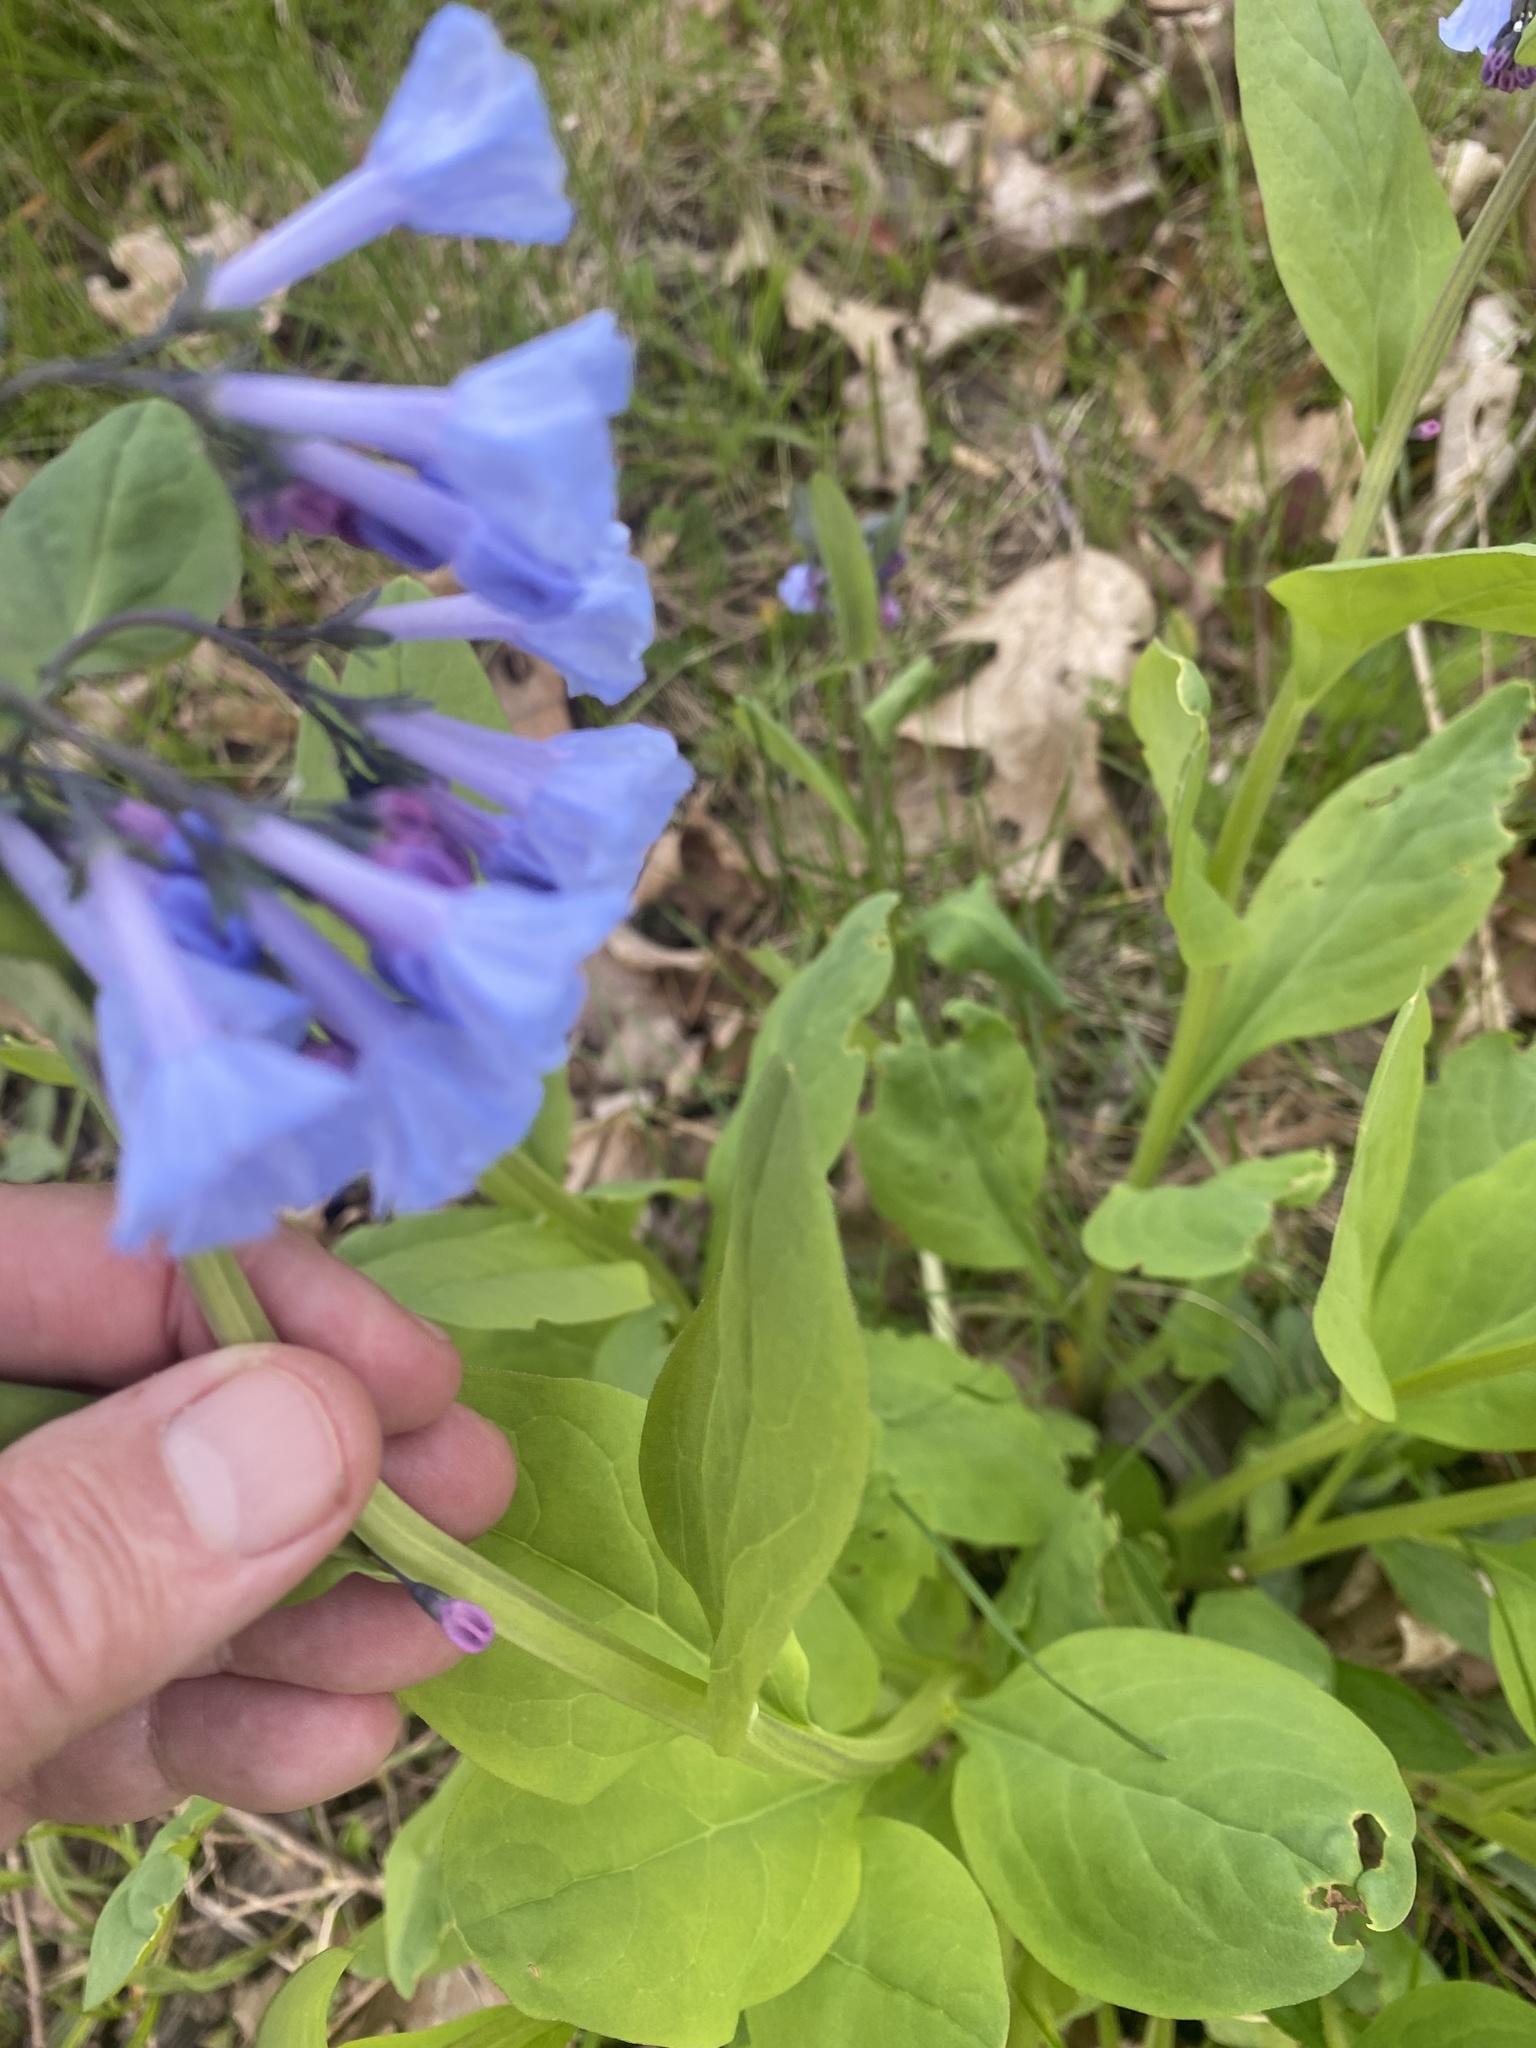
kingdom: Plantae
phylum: Tracheophyta
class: Magnoliopsida
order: Boraginales
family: Boraginaceae
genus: Mertensia
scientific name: Mertensia virginica
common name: Virginia bluebells
